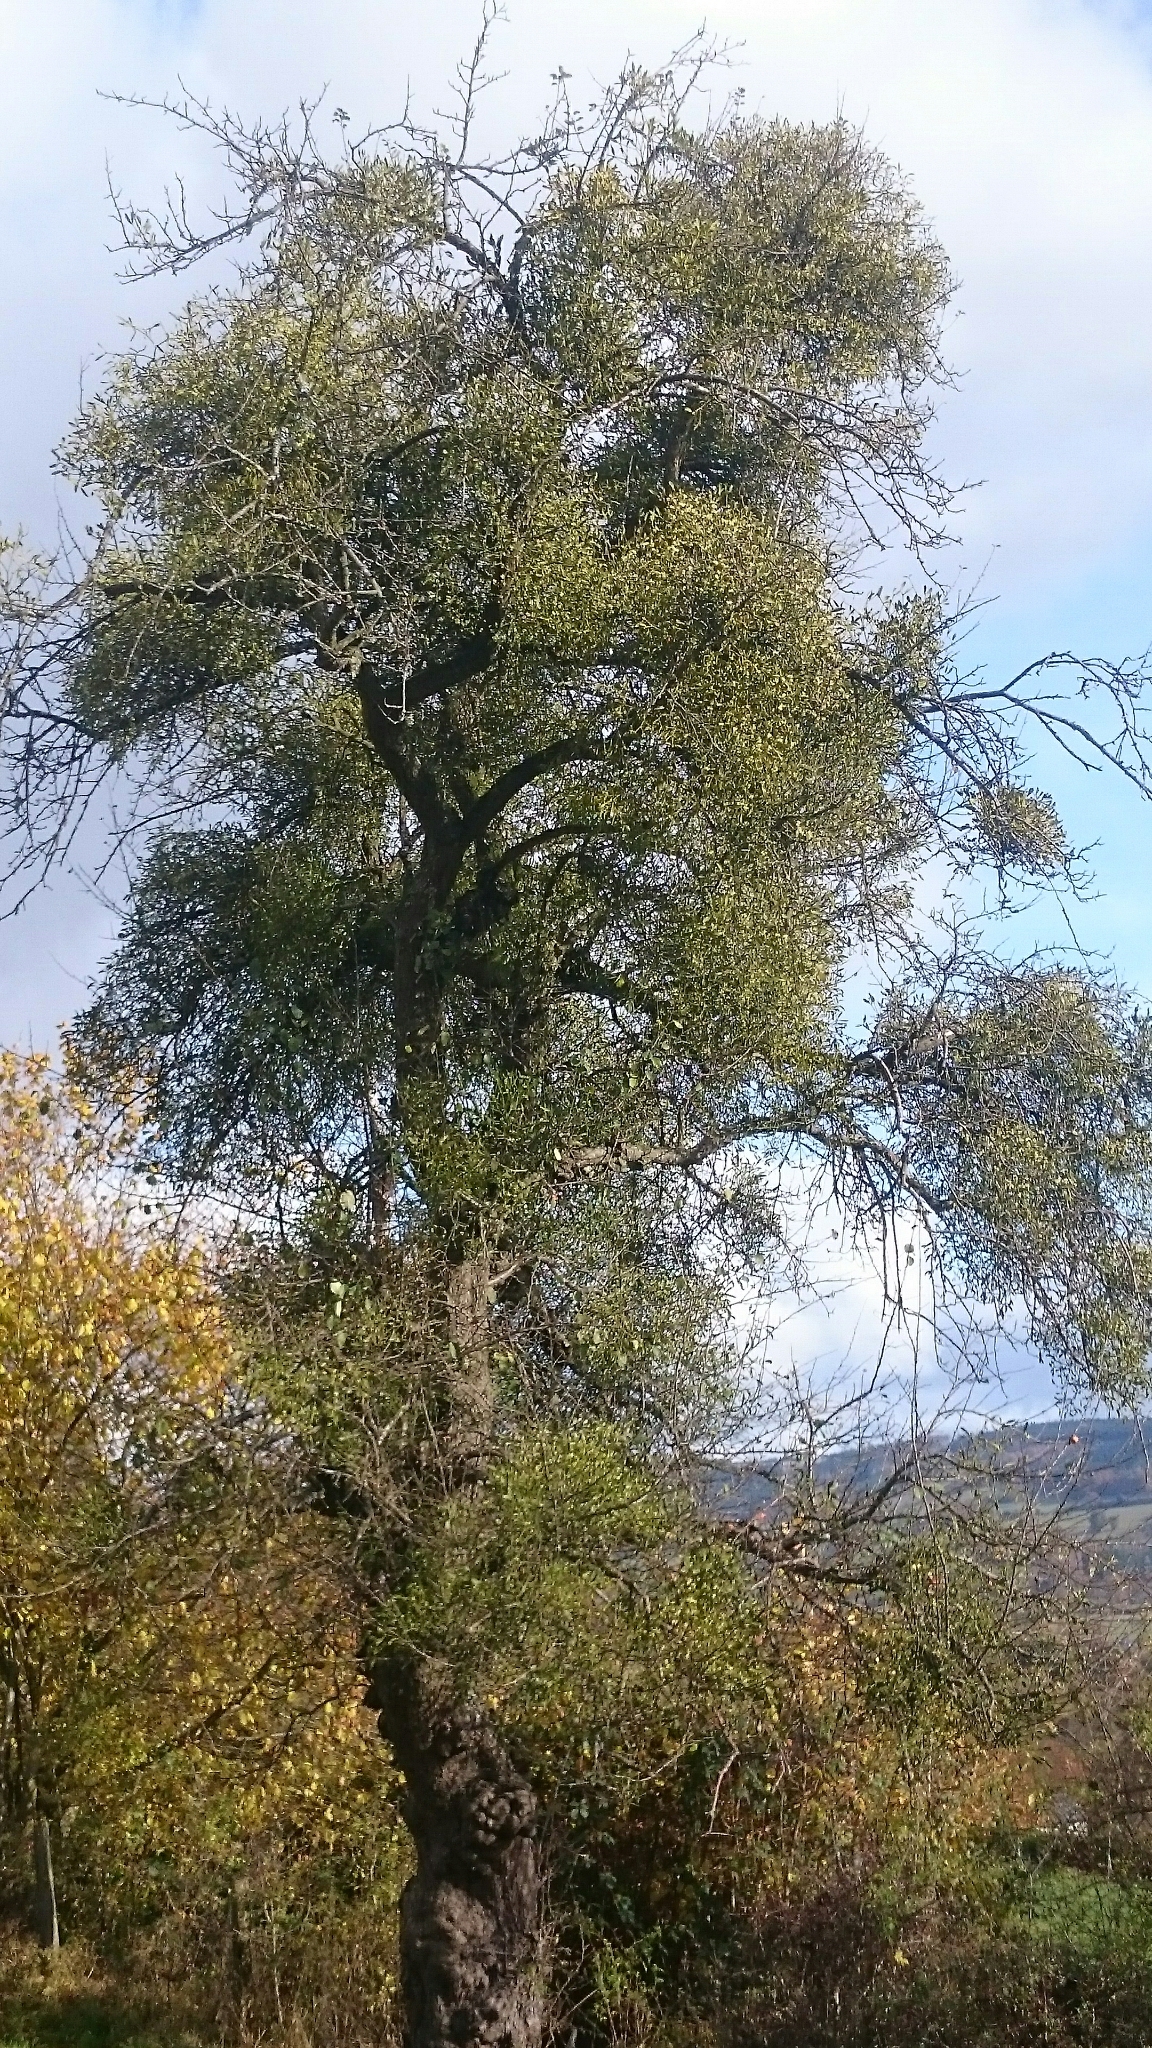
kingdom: Plantae
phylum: Tracheophyta
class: Magnoliopsida
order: Santalales
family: Viscaceae
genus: Viscum
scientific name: Viscum album
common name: Mistletoe
